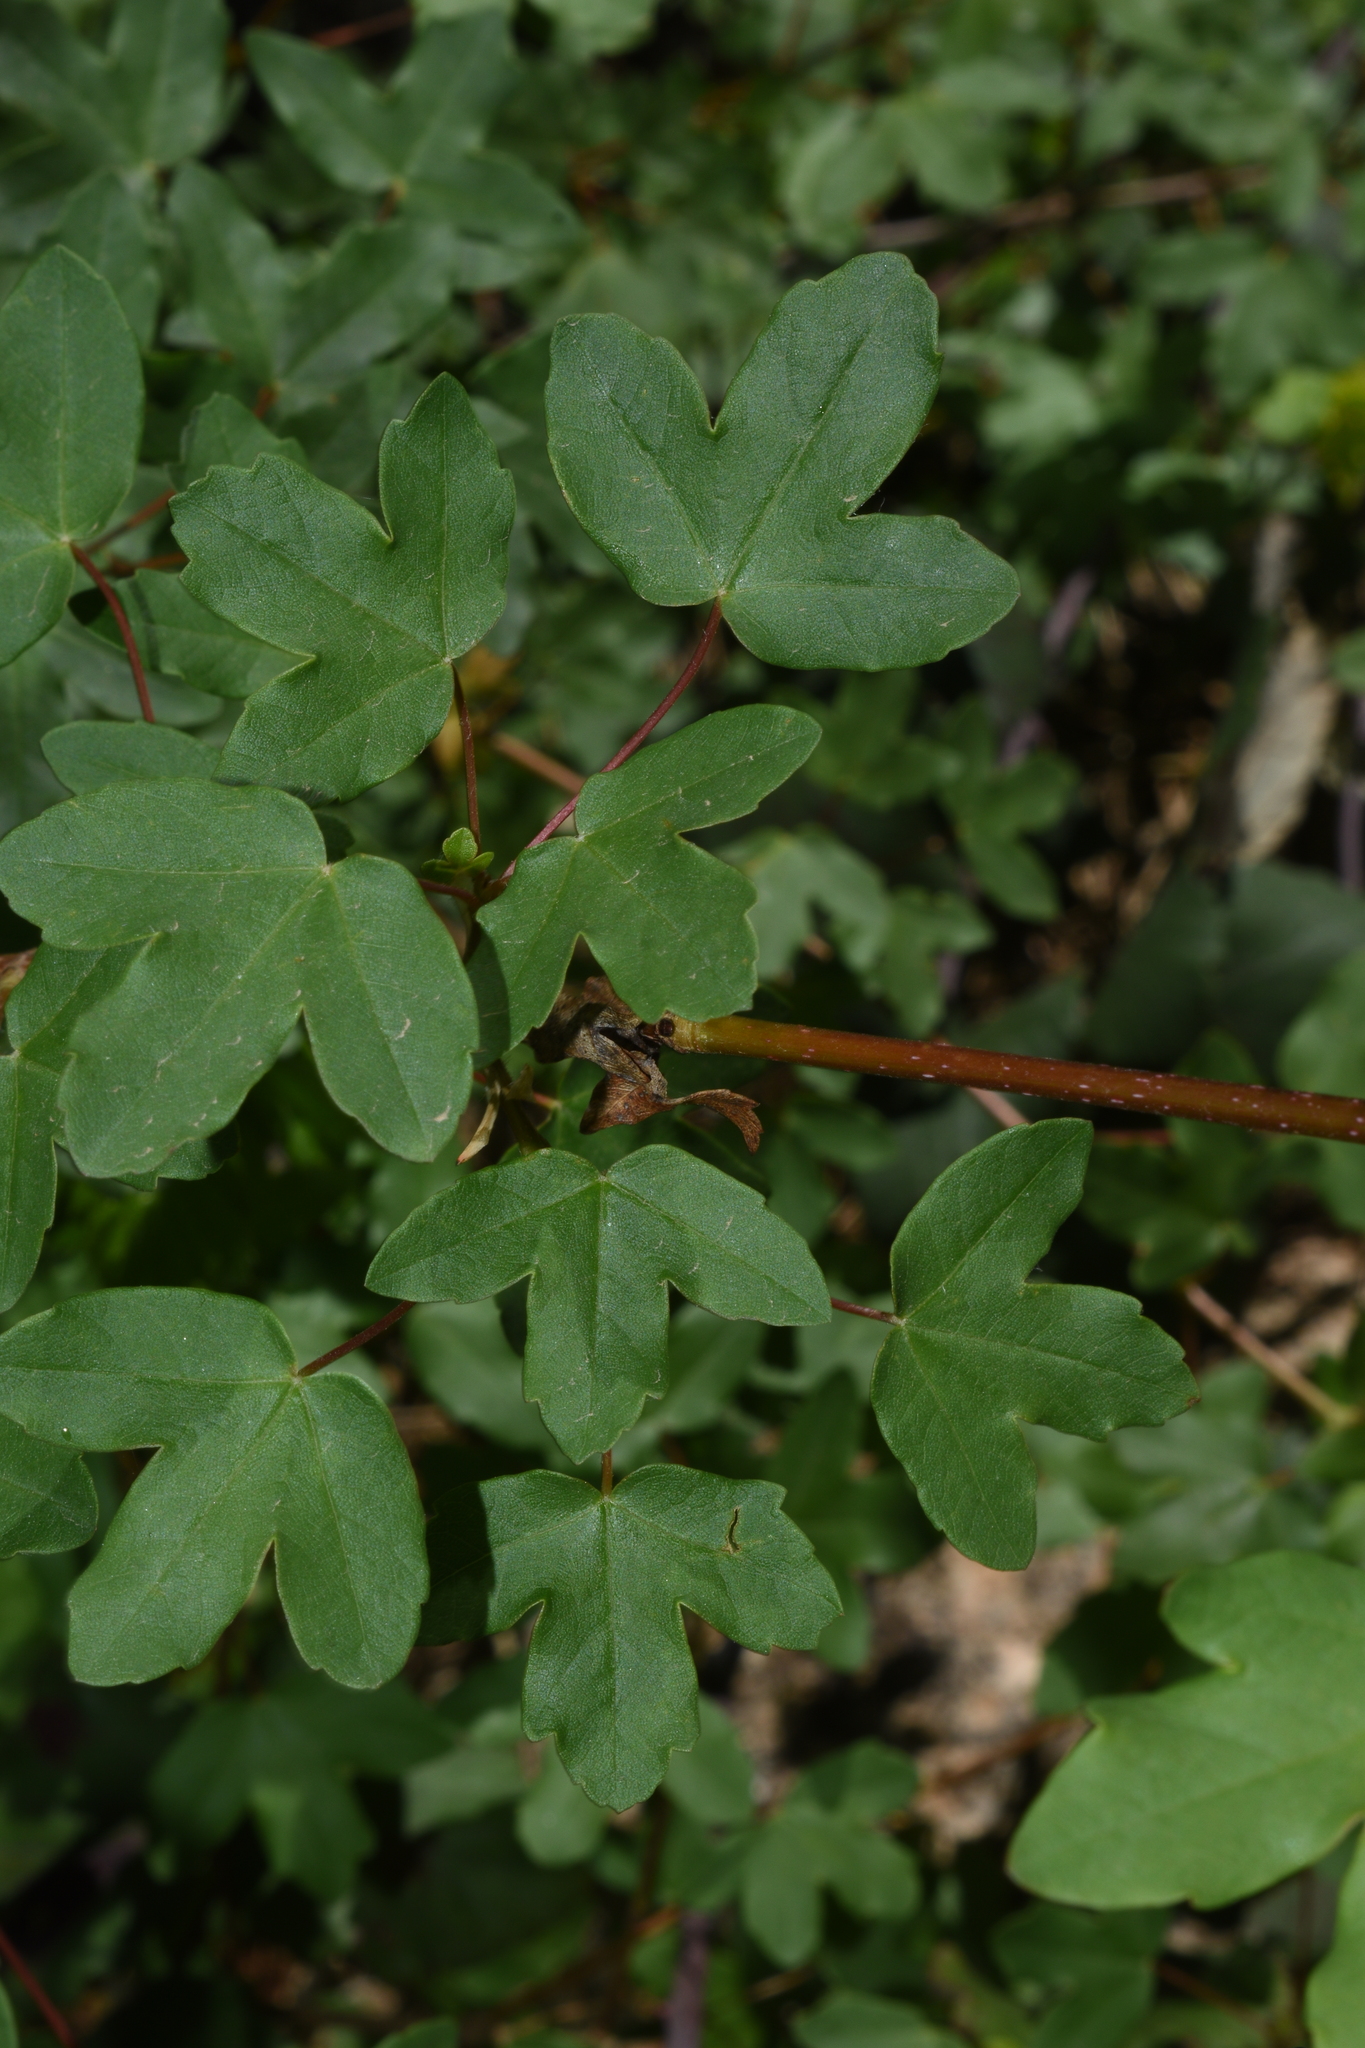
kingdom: Plantae
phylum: Tracheophyta
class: Magnoliopsida
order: Sapindales
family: Sapindaceae
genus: Acer
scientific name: Acer monspessulanum
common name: Montpellier maple
